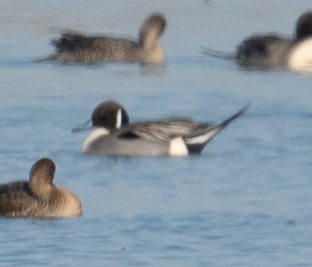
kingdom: Animalia
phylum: Chordata
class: Aves
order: Anseriformes
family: Anatidae
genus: Anas
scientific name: Anas acuta
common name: Northern pintail
